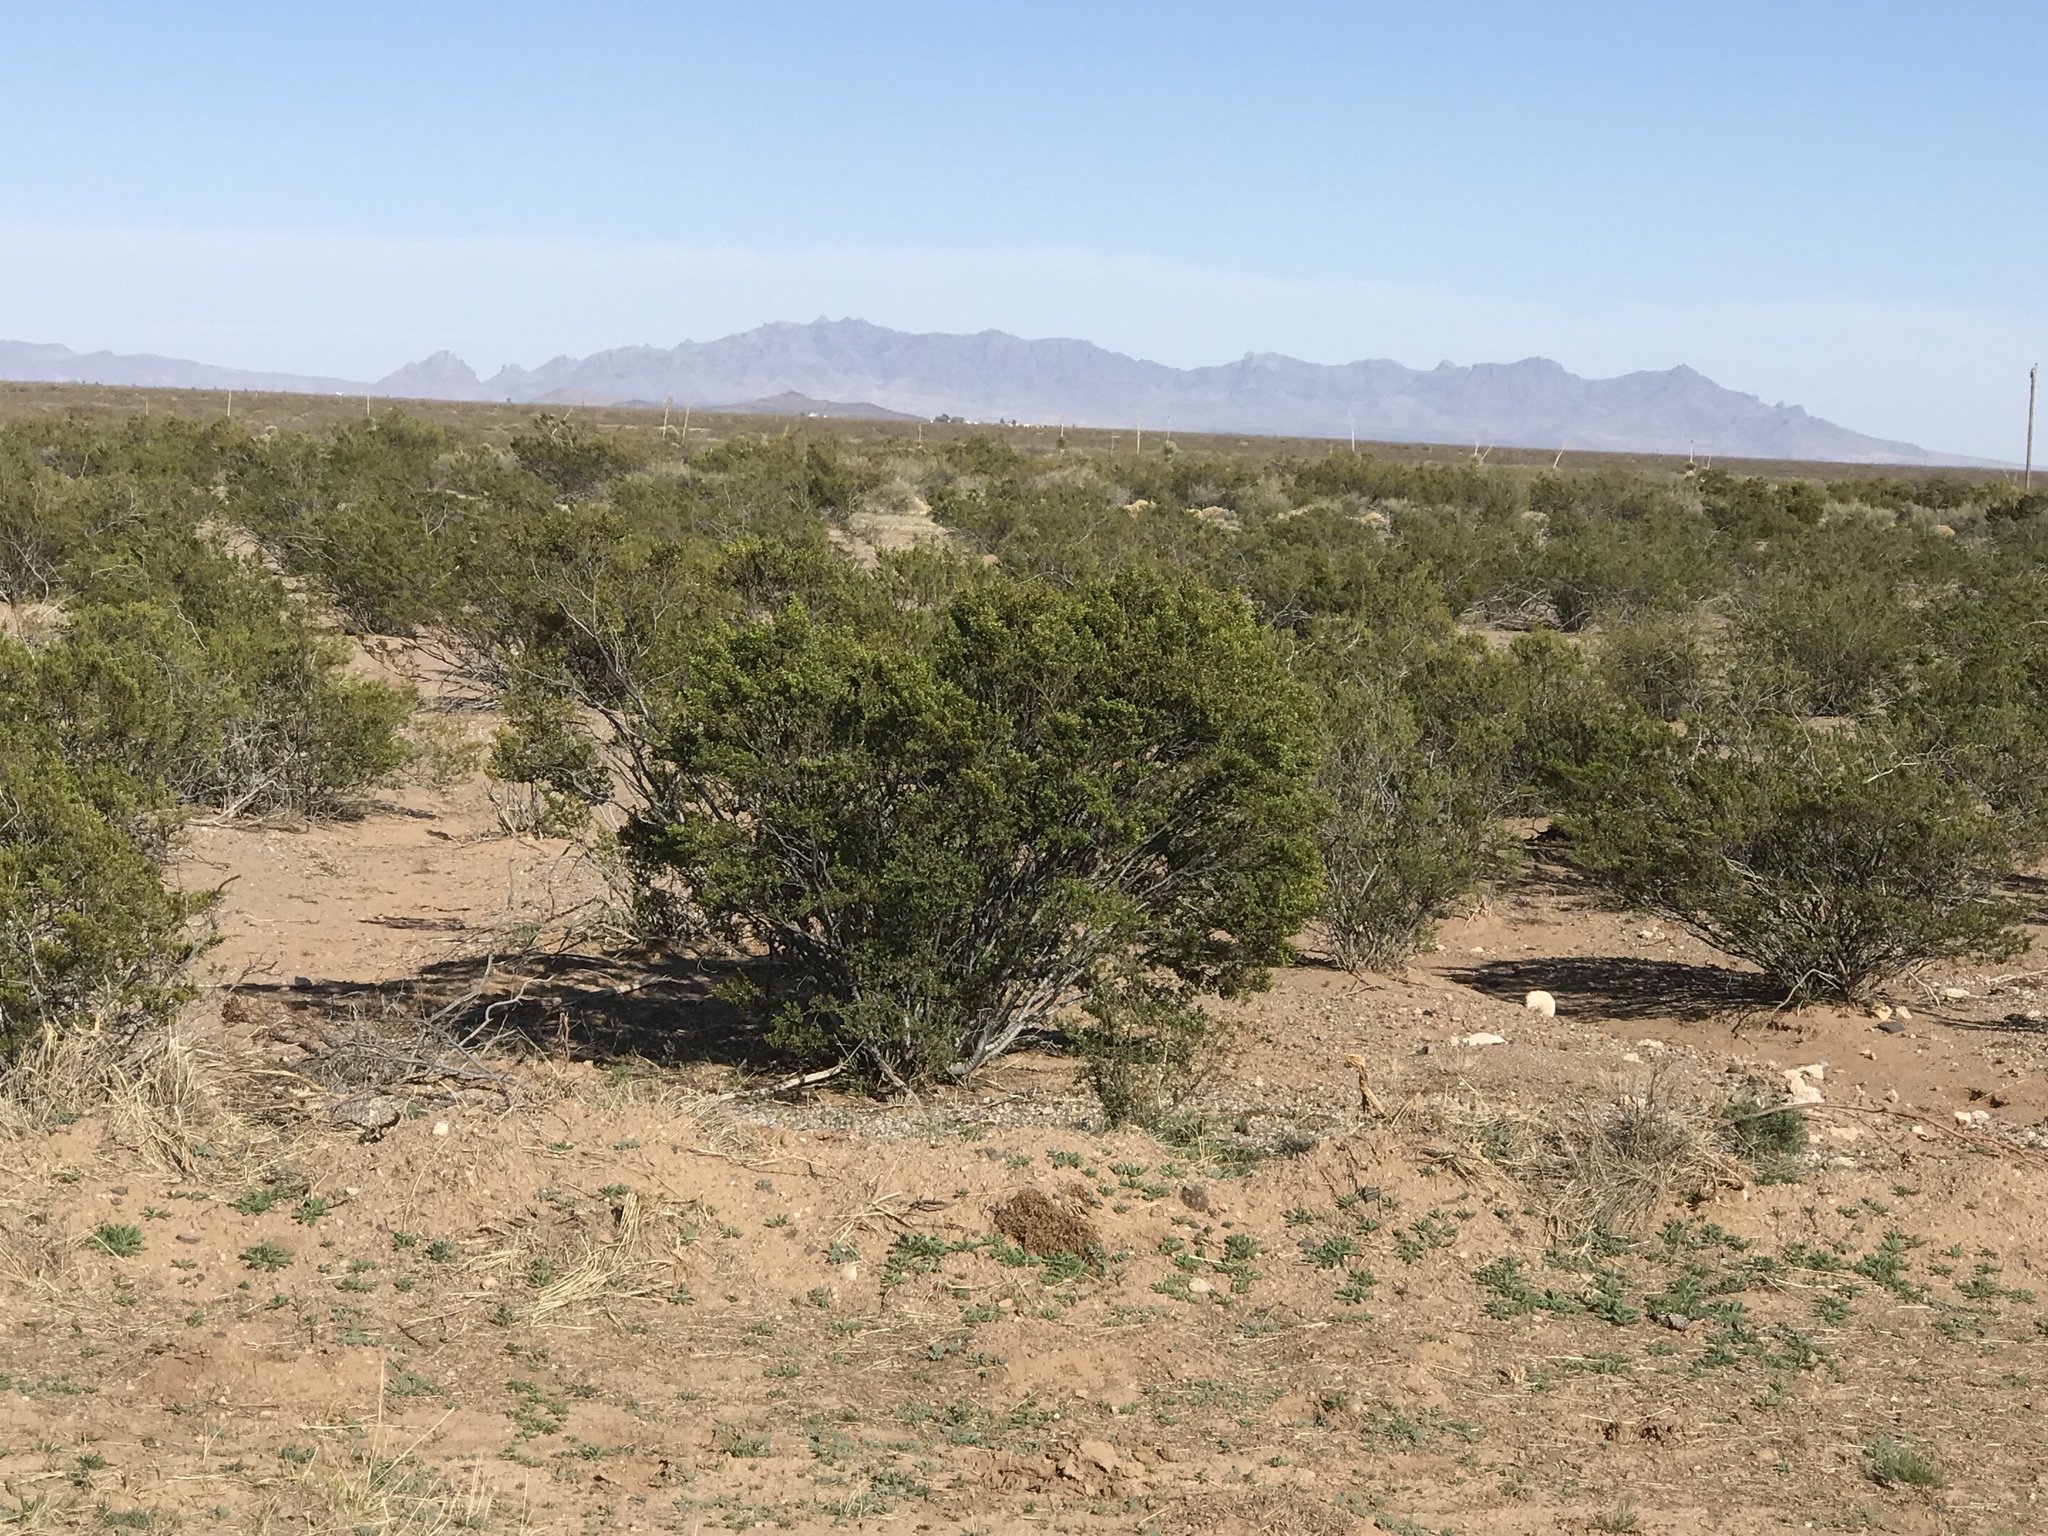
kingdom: Plantae
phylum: Tracheophyta
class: Magnoliopsida
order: Zygophyllales
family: Zygophyllaceae
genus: Larrea
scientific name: Larrea tridentata
